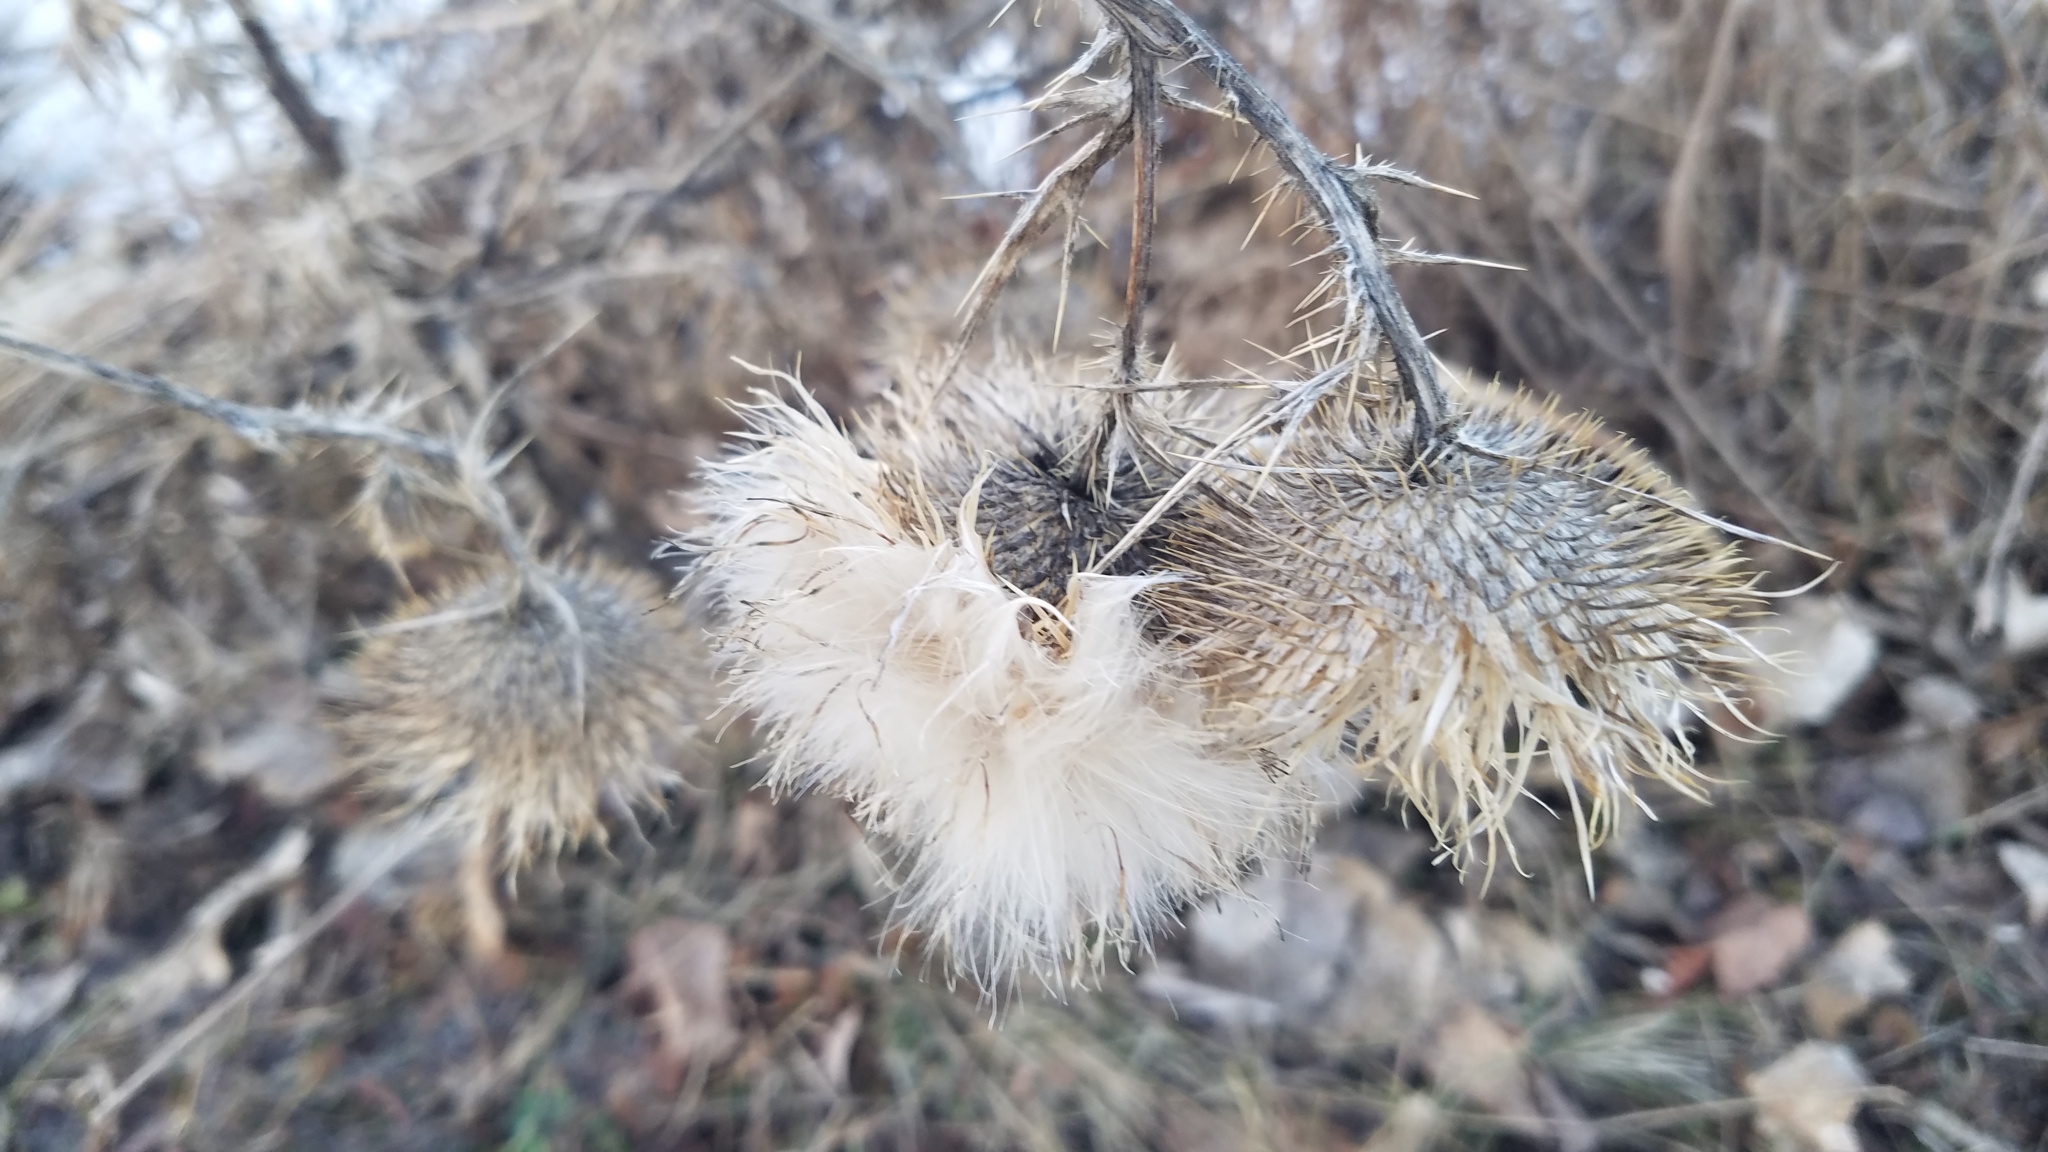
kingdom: Plantae
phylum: Tracheophyta
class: Magnoliopsida
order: Asterales
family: Asteraceae
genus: Cirsium
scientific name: Cirsium vulgare
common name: Bull thistle
